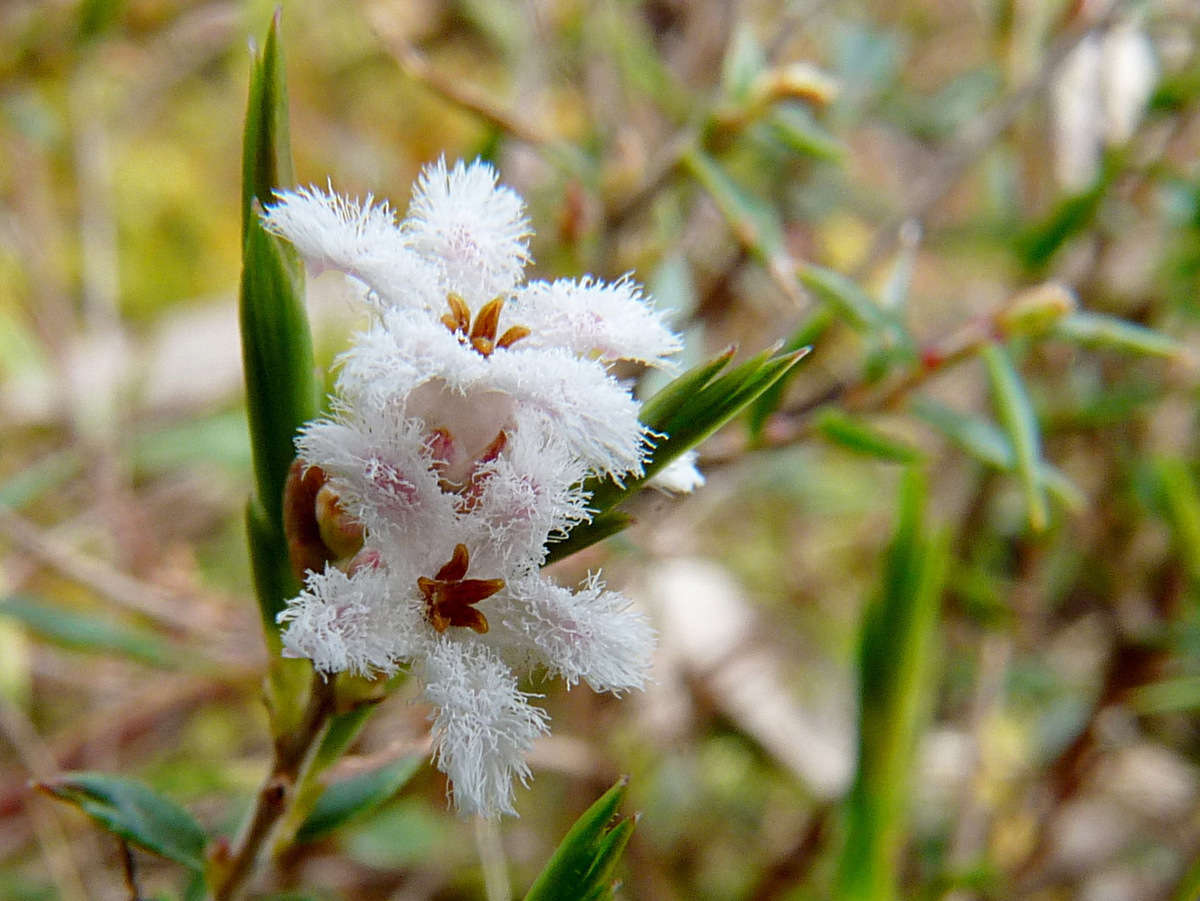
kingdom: Plantae
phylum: Tracheophyta
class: Magnoliopsida
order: Ericales
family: Ericaceae
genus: Leucopogon
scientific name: Leucopogon virgatus
